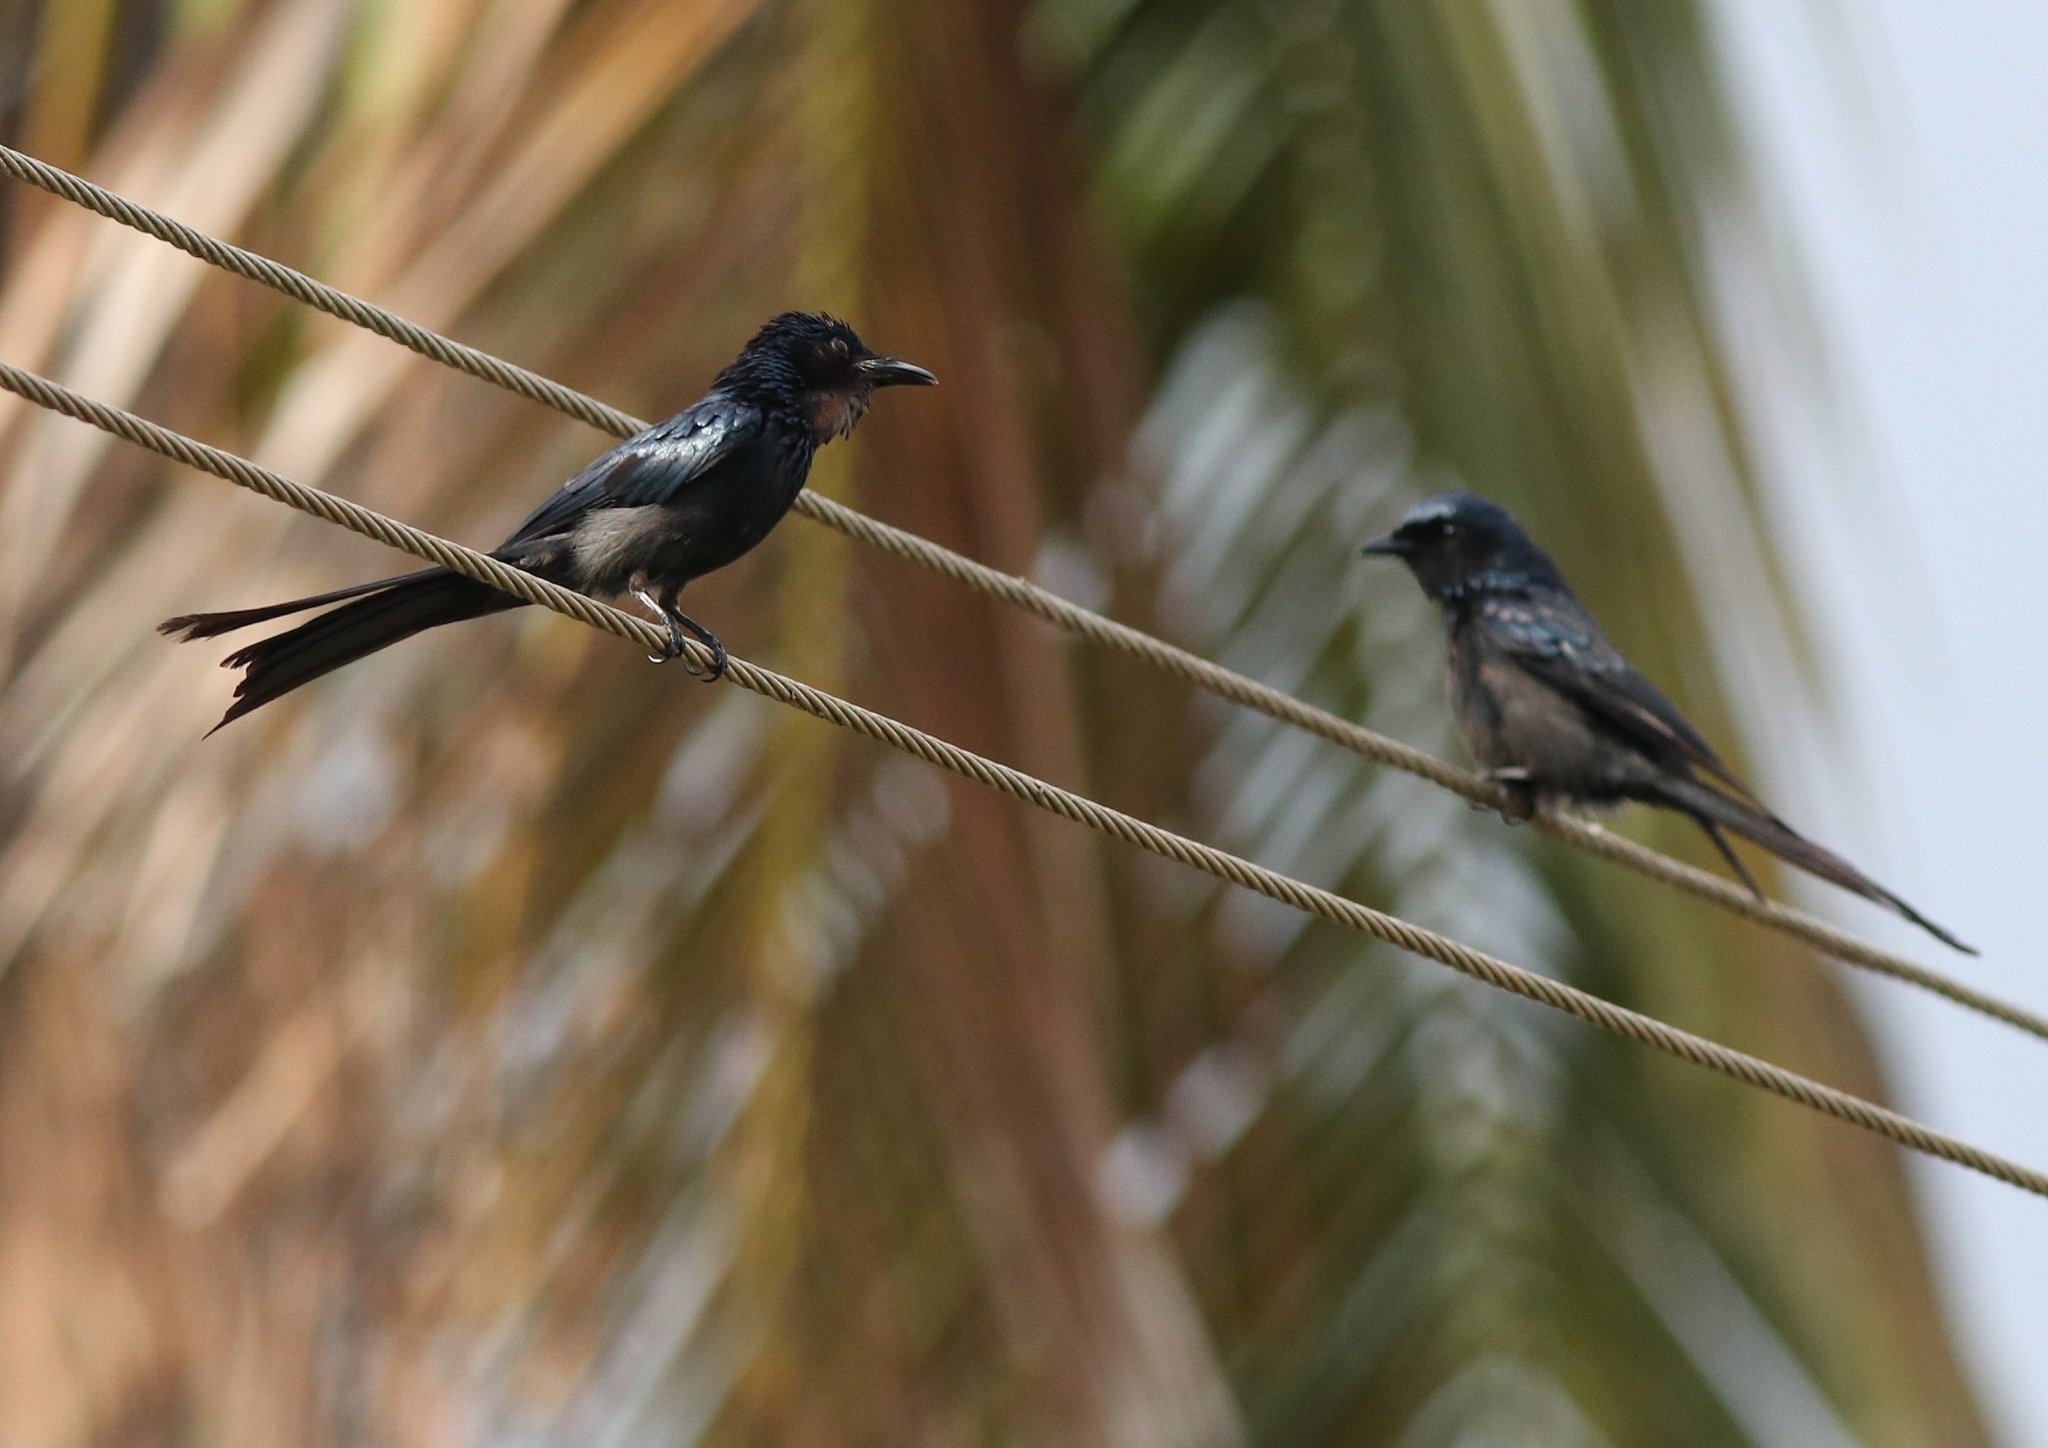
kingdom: Animalia
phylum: Chordata
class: Aves
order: Passeriformes
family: Dicruridae
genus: Dicrurus
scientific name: Dicrurus aeneus
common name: Bronzed drongo
